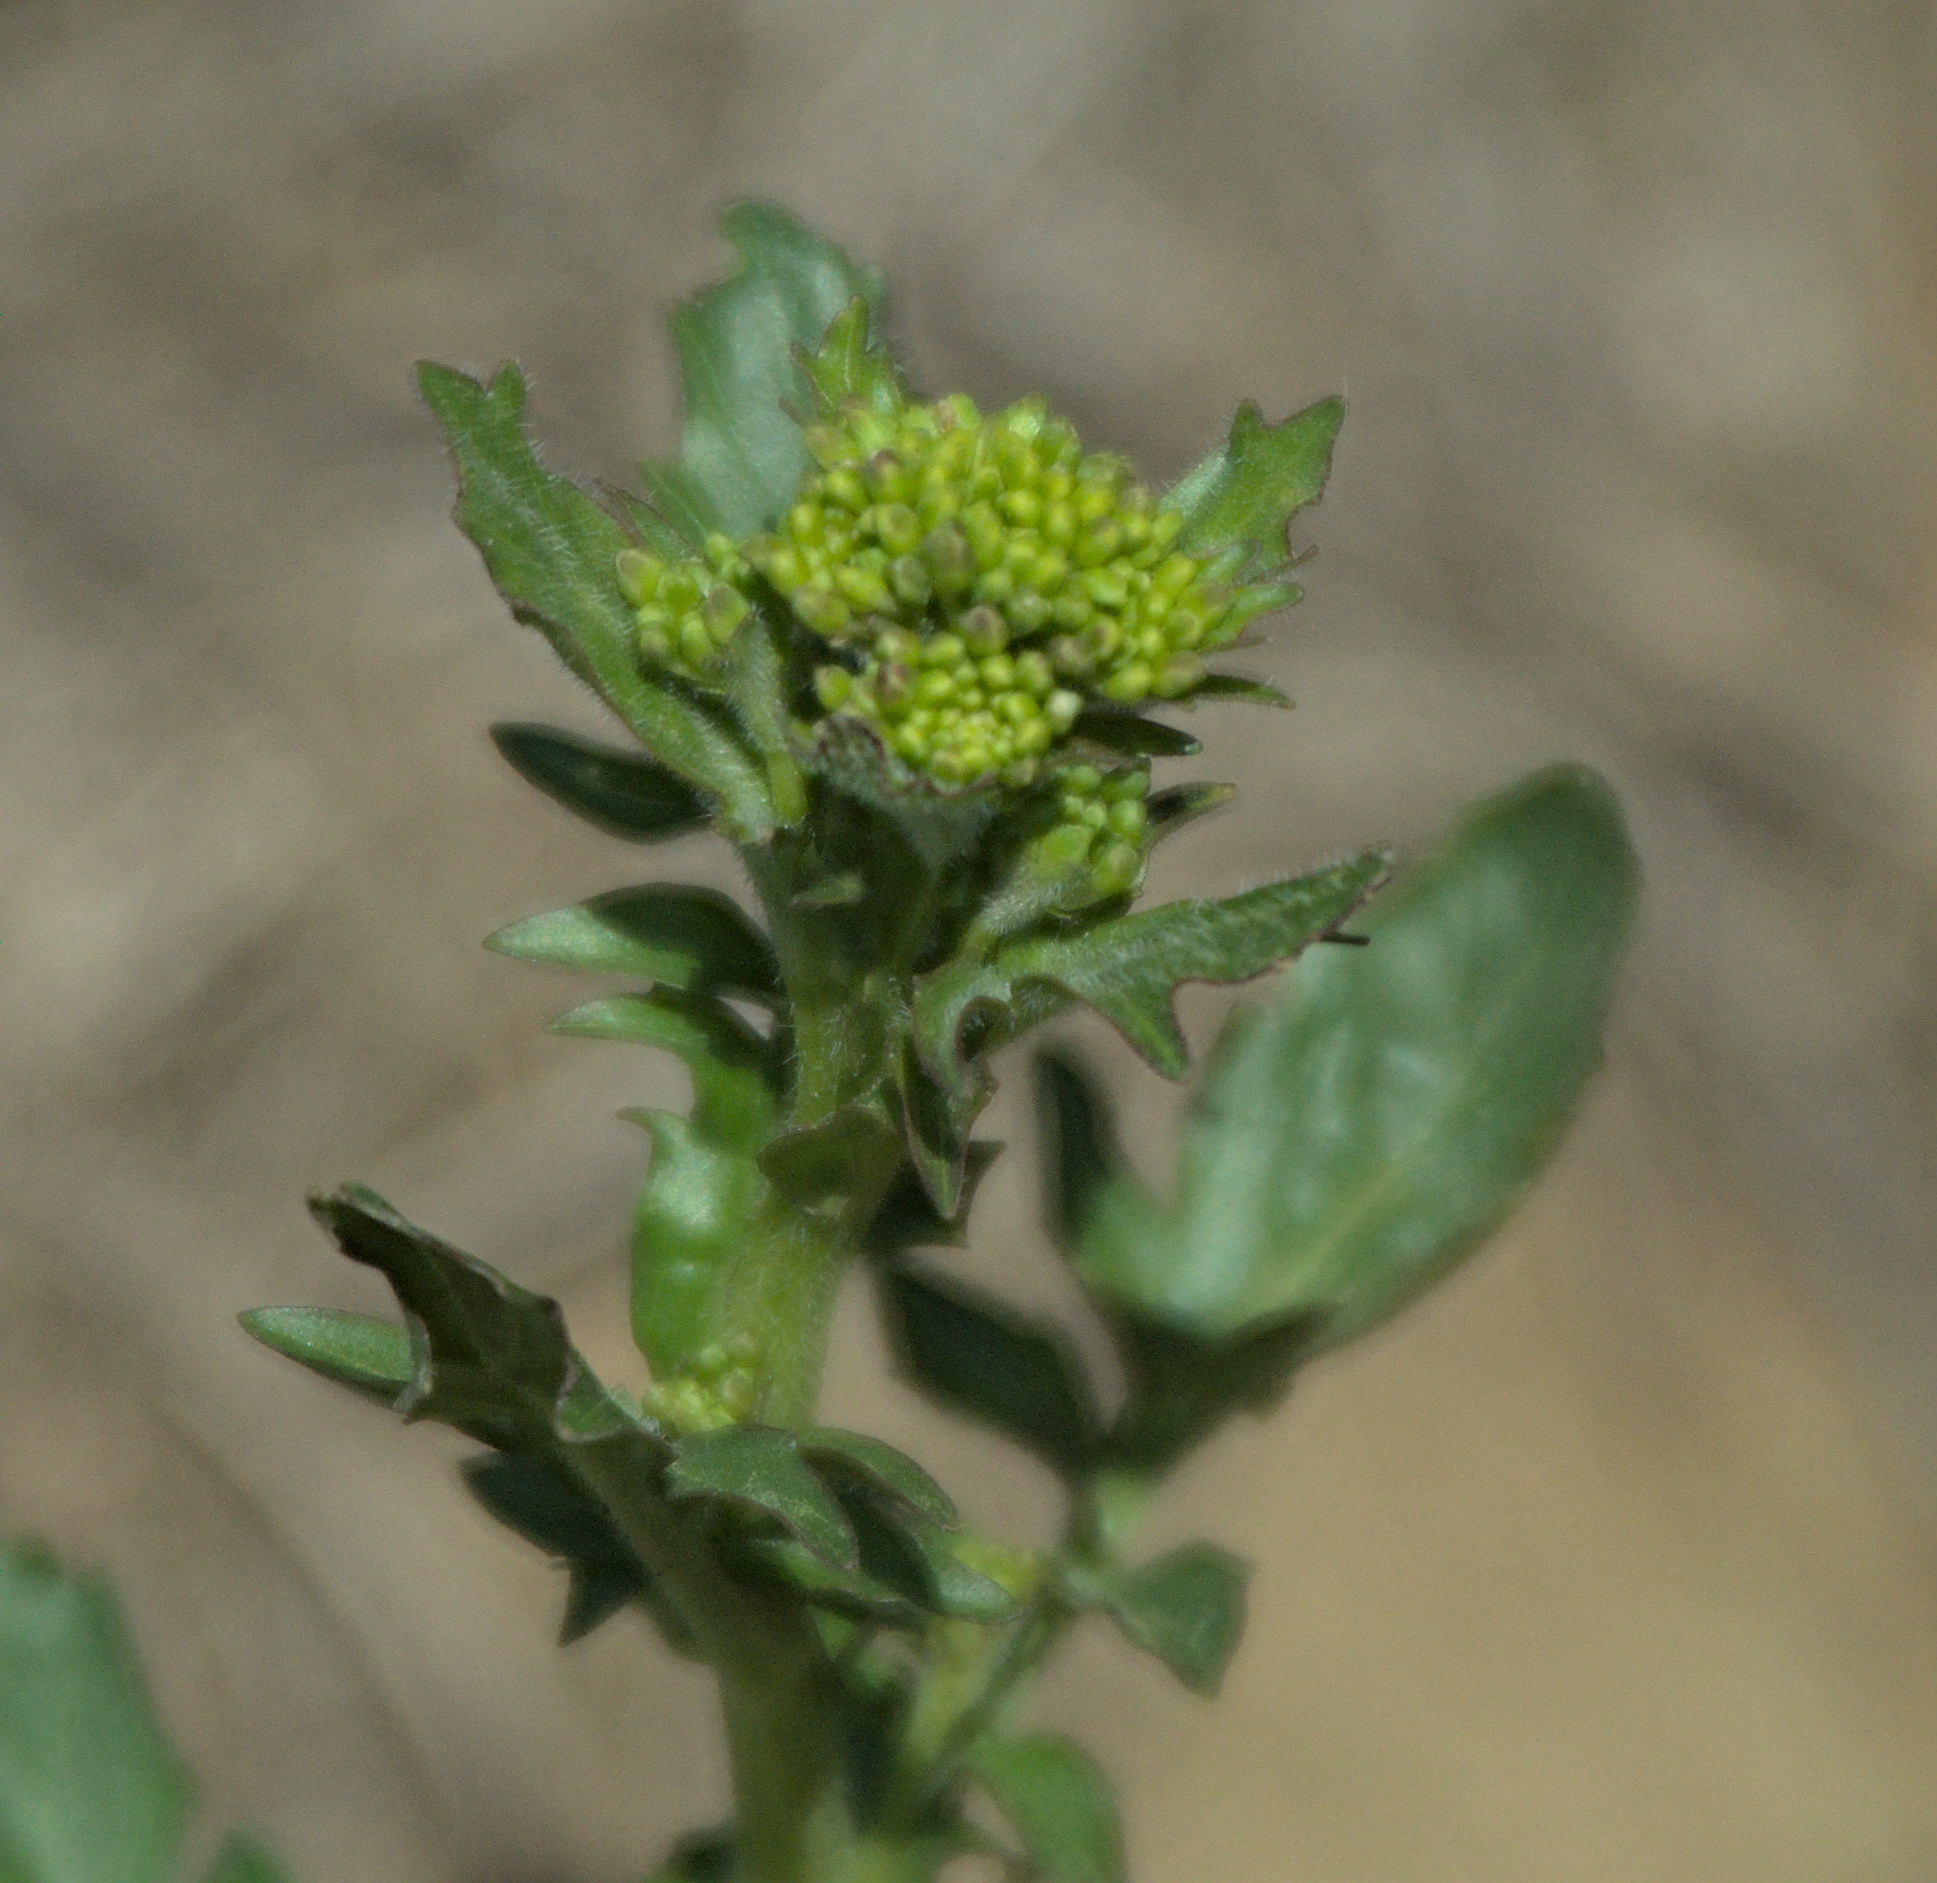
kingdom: Plantae
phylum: Tracheophyta
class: Magnoliopsida
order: Brassicales
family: Brassicaceae
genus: Barbarea
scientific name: Barbarea vulgaris
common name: Cressy-greens
